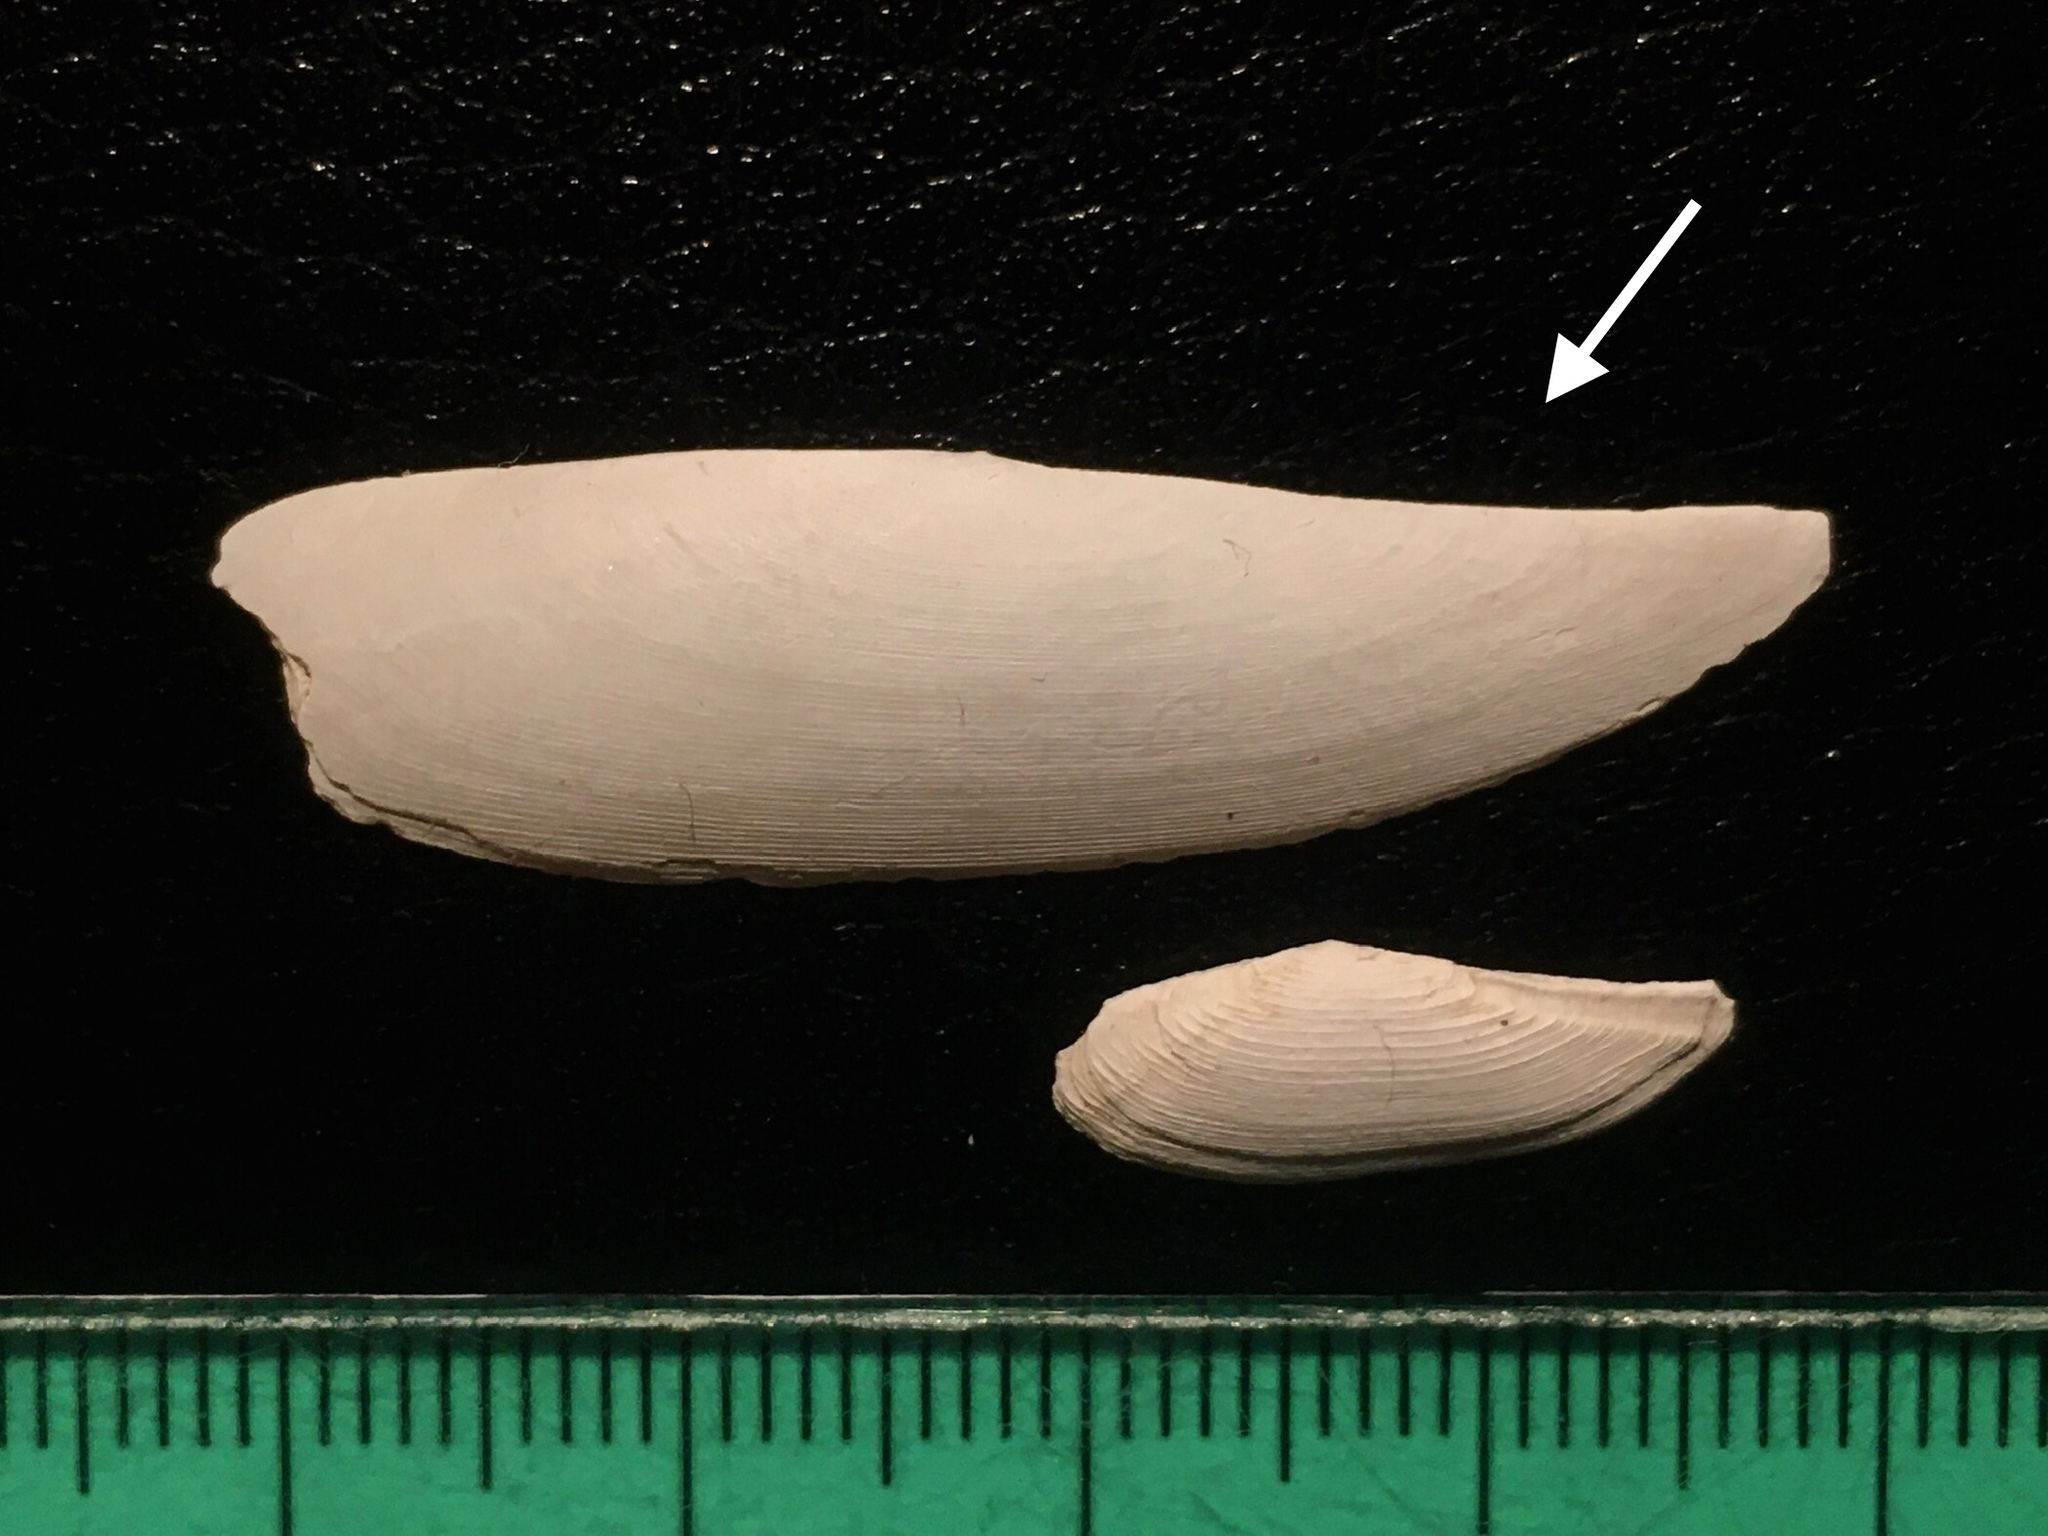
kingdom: Animalia
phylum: Mollusca
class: Bivalvia
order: Nuculanida
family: Nuculanidae
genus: Adrana
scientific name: Adrana electa
